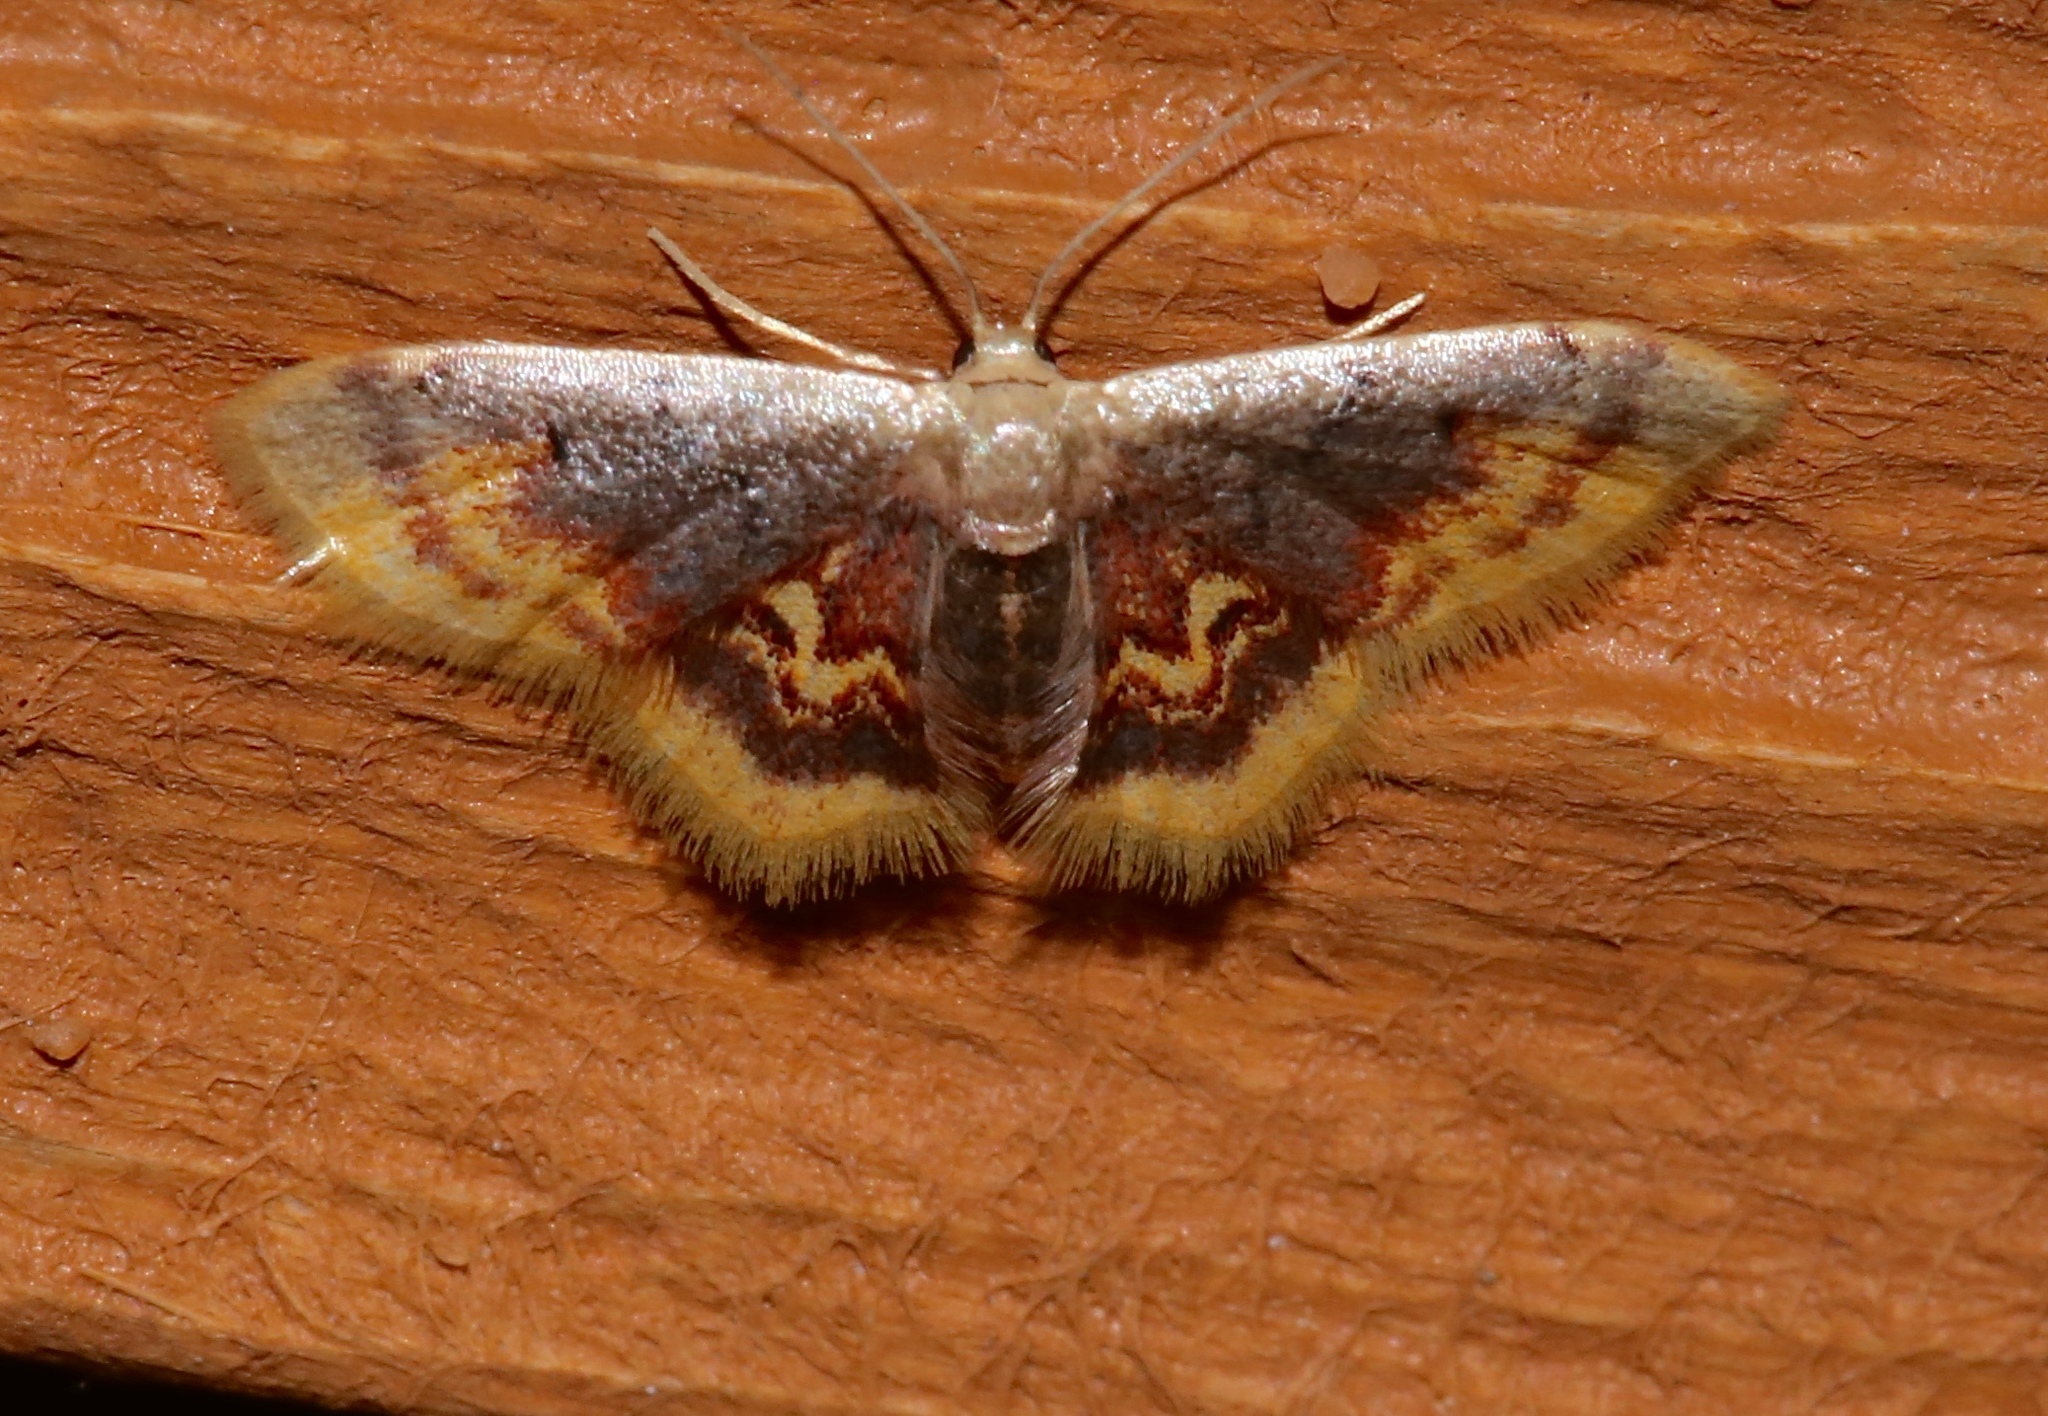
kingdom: Animalia
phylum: Arthropoda
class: Insecta
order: Lepidoptera
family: Geometridae
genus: Idaea
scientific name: Idaea scintillularia
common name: Diminutive wave
